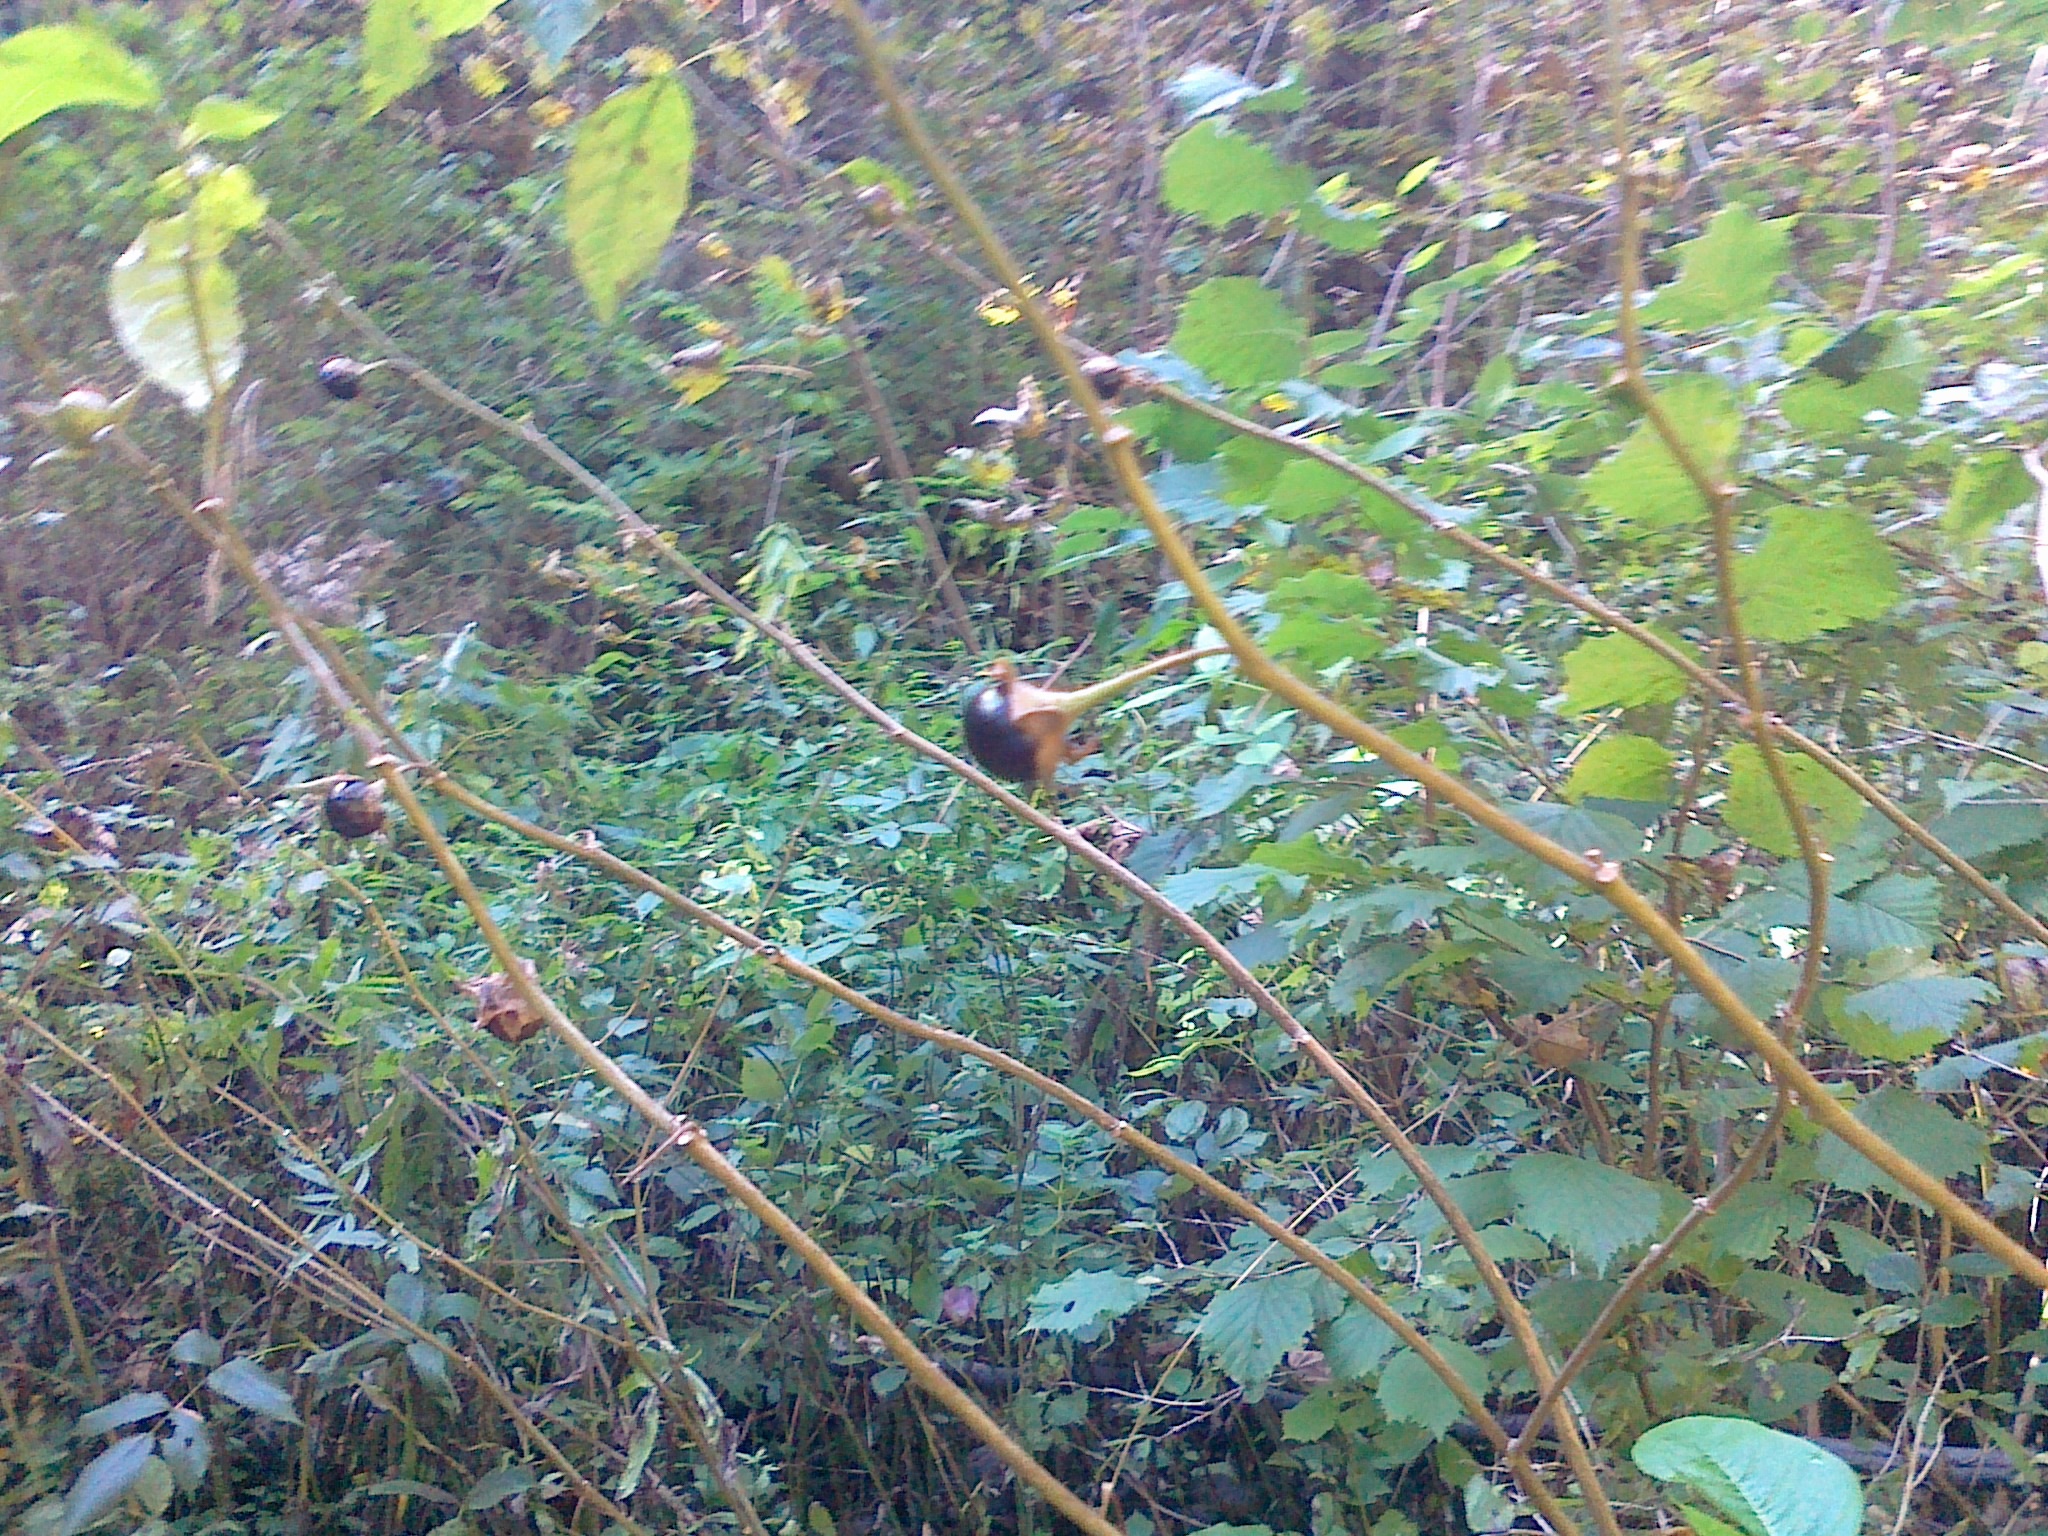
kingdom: Plantae
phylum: Tracheophyta
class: Magnoliopsida
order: Solanales
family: Solanaceae
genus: Atropa
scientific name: Atropa belladonna
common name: Deadly nightshade
